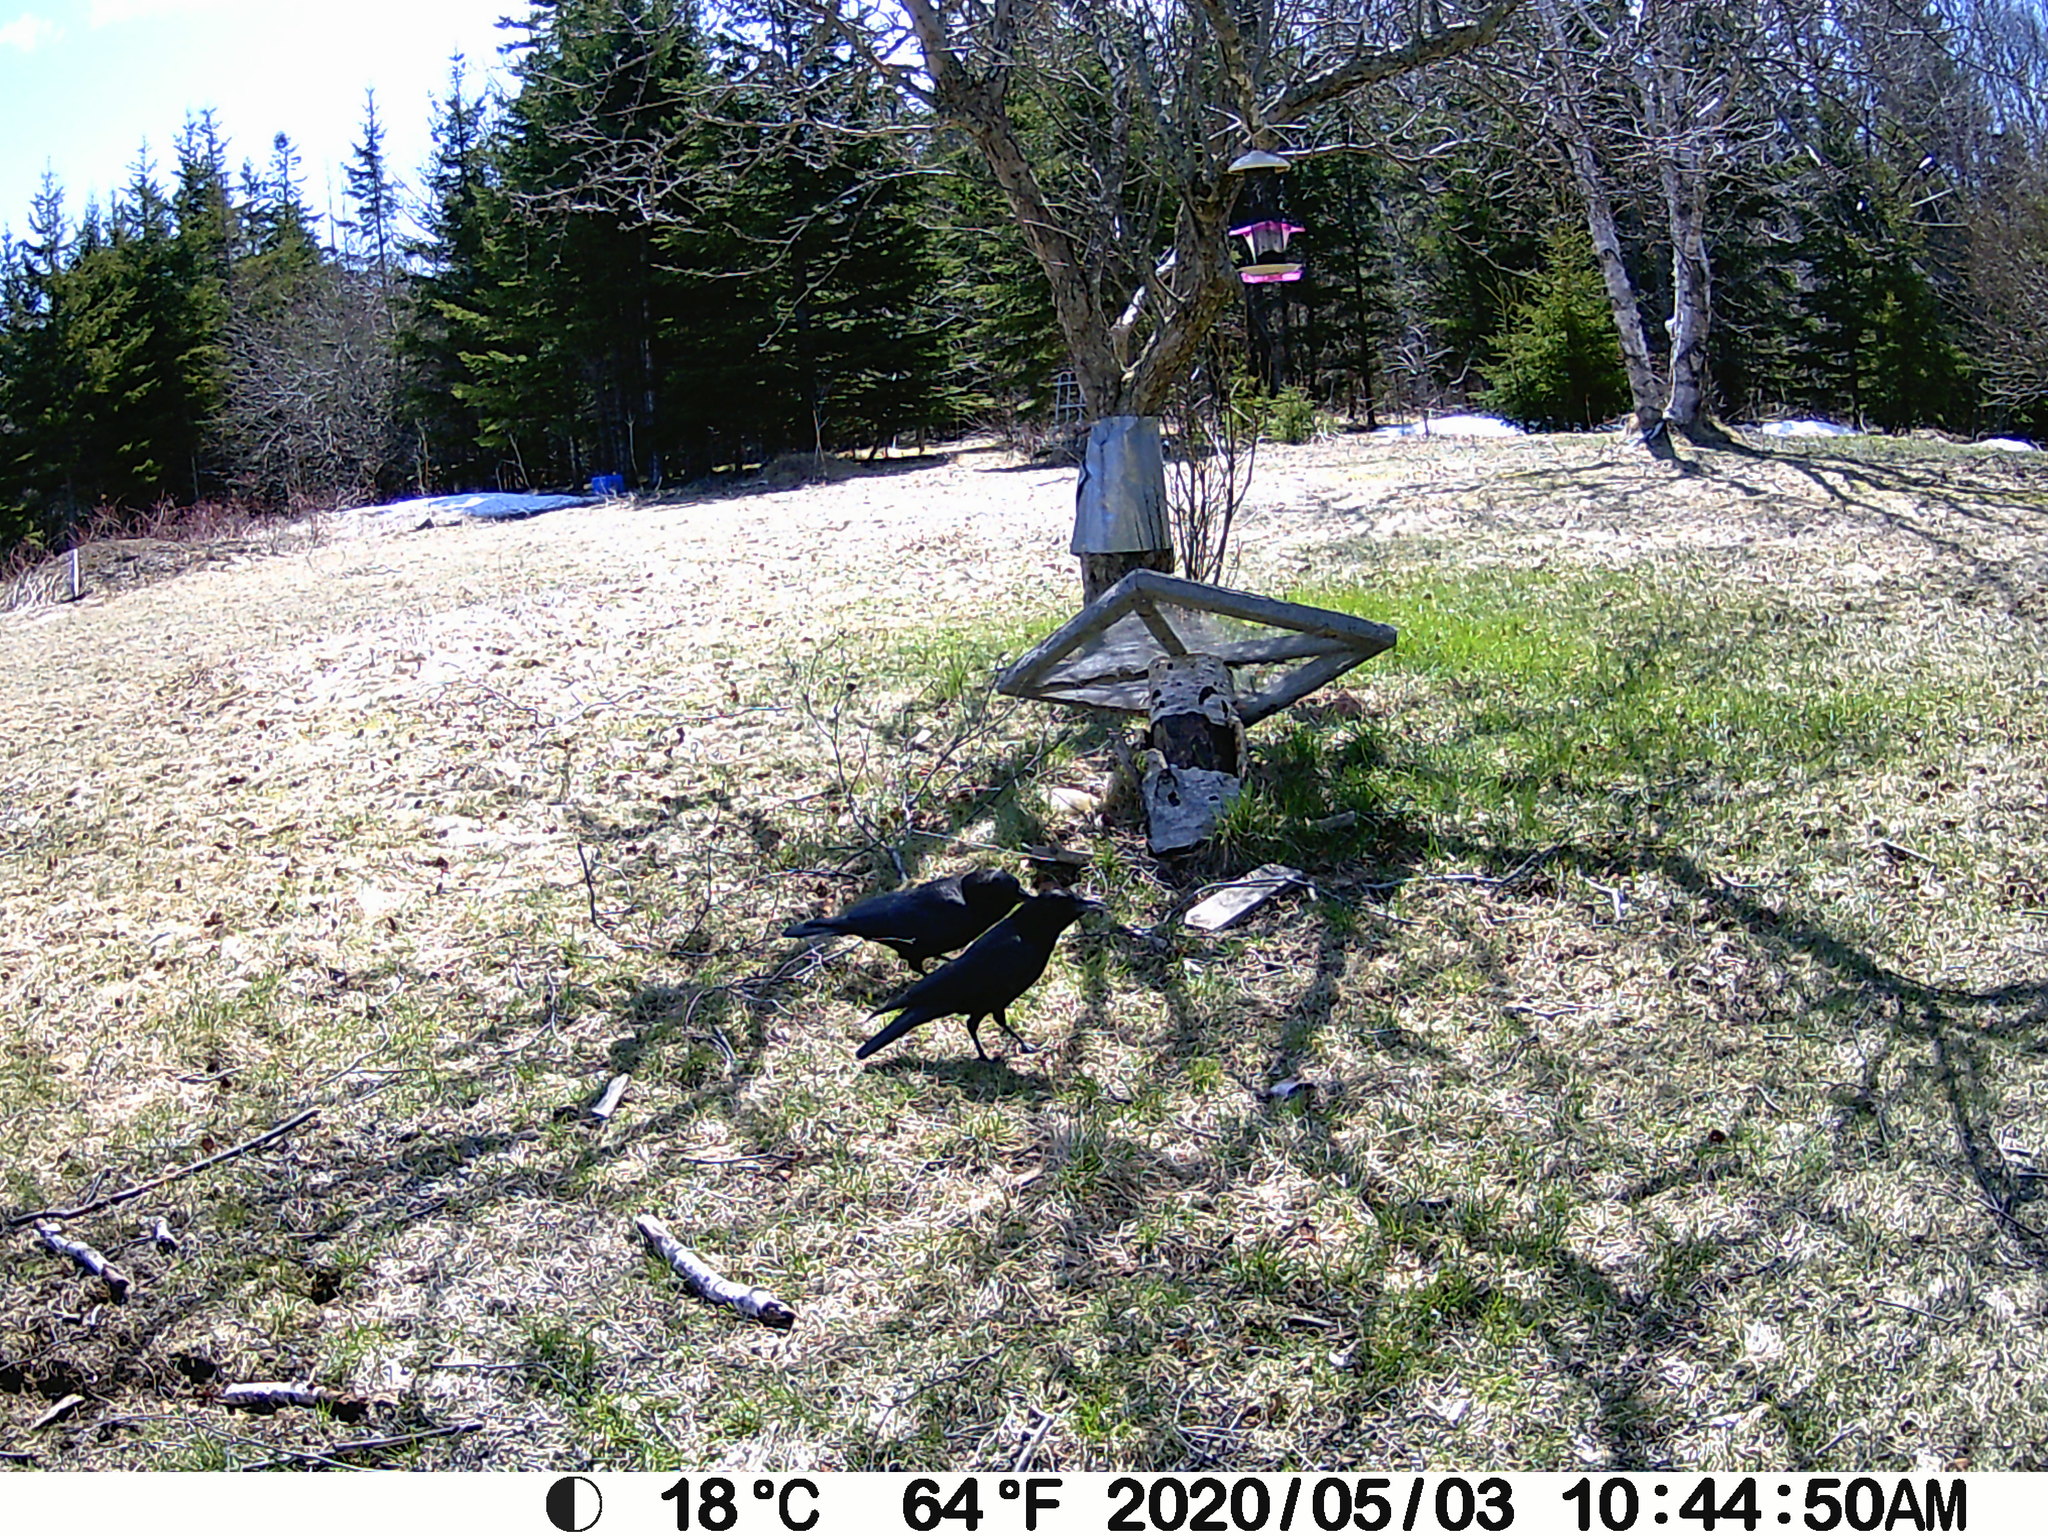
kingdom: Animalia
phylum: Chordata
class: Aves
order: Passeriformes
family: Corvidae
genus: Corvus
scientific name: Corvus brachyrhynchos
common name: American crow
